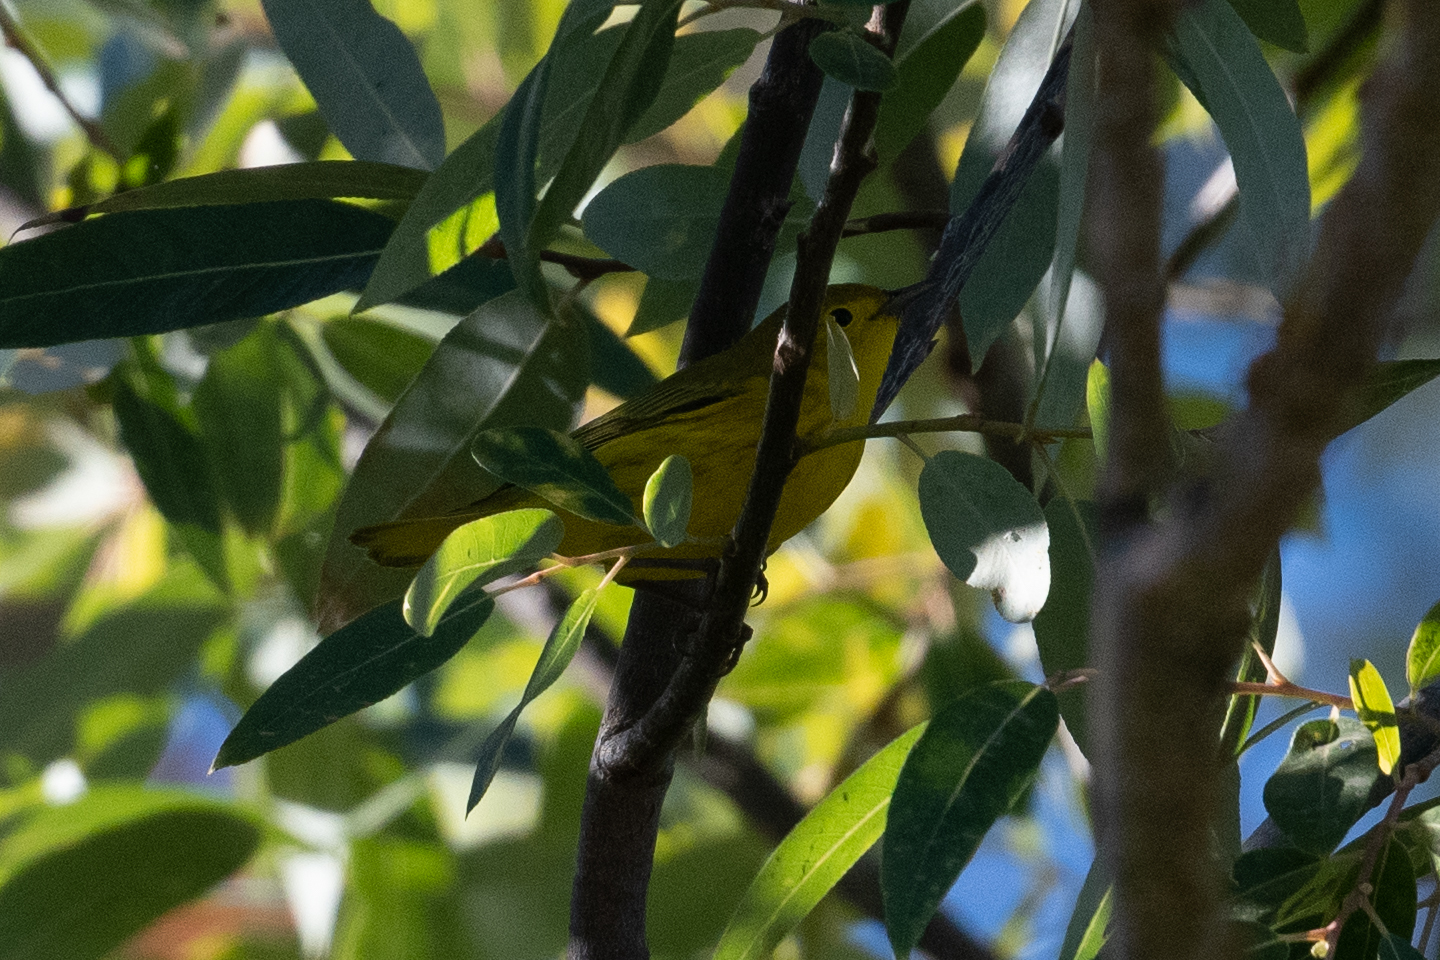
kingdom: Animalia
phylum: Chordata
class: Aves
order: Passeriformes
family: Parulidae
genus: Setophaga
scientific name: Setophaga petechia
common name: Yellow warbler
